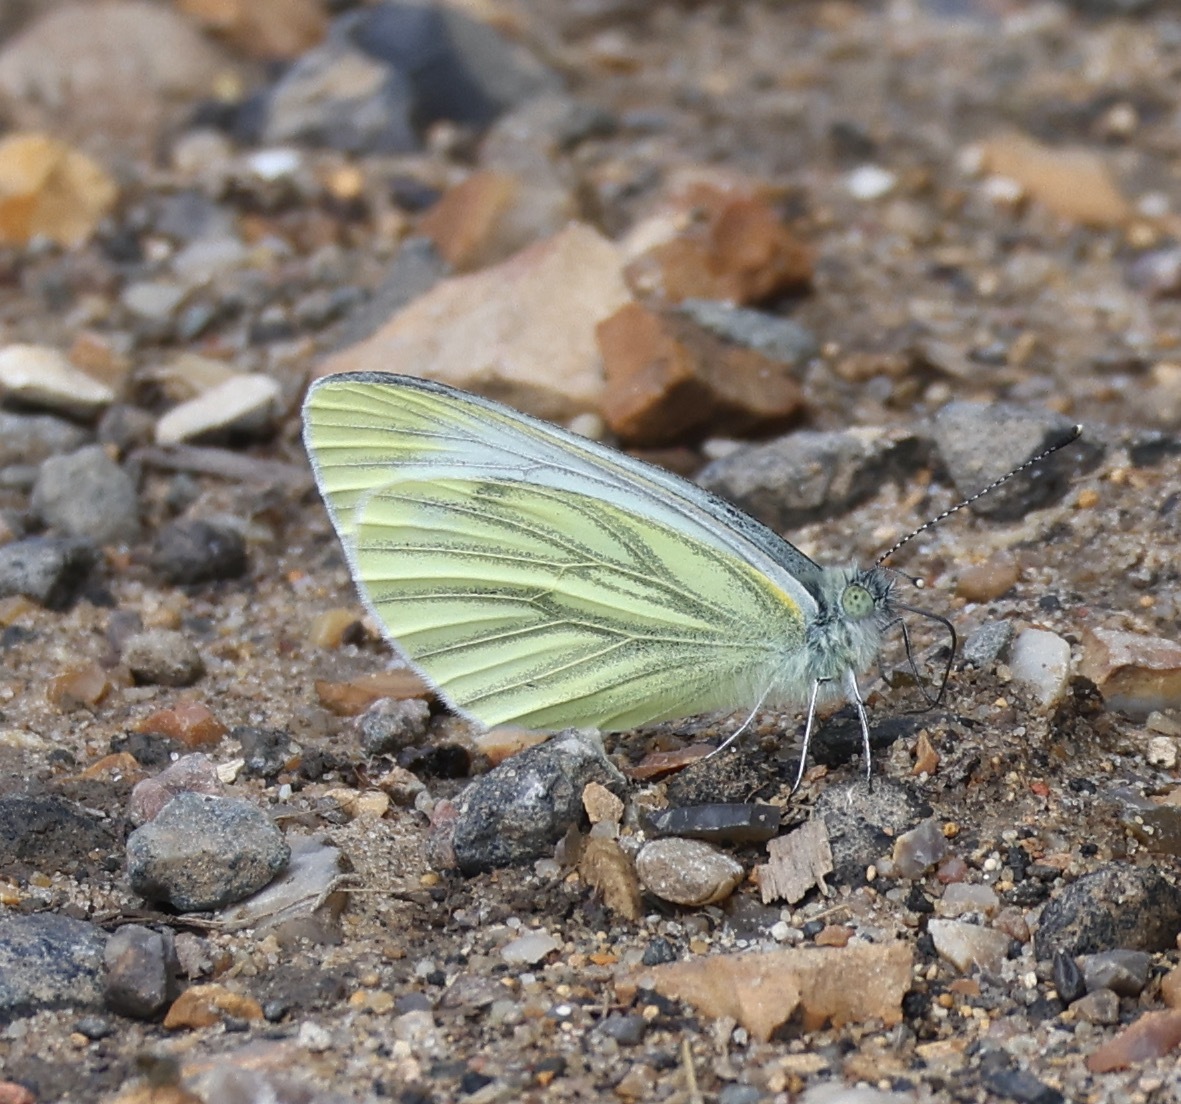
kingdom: Animalia
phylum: Arthropoda
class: Insecta
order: Lepidoptera
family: Pieridae
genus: Pieris
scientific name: Pieris napi
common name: Green-veined white
